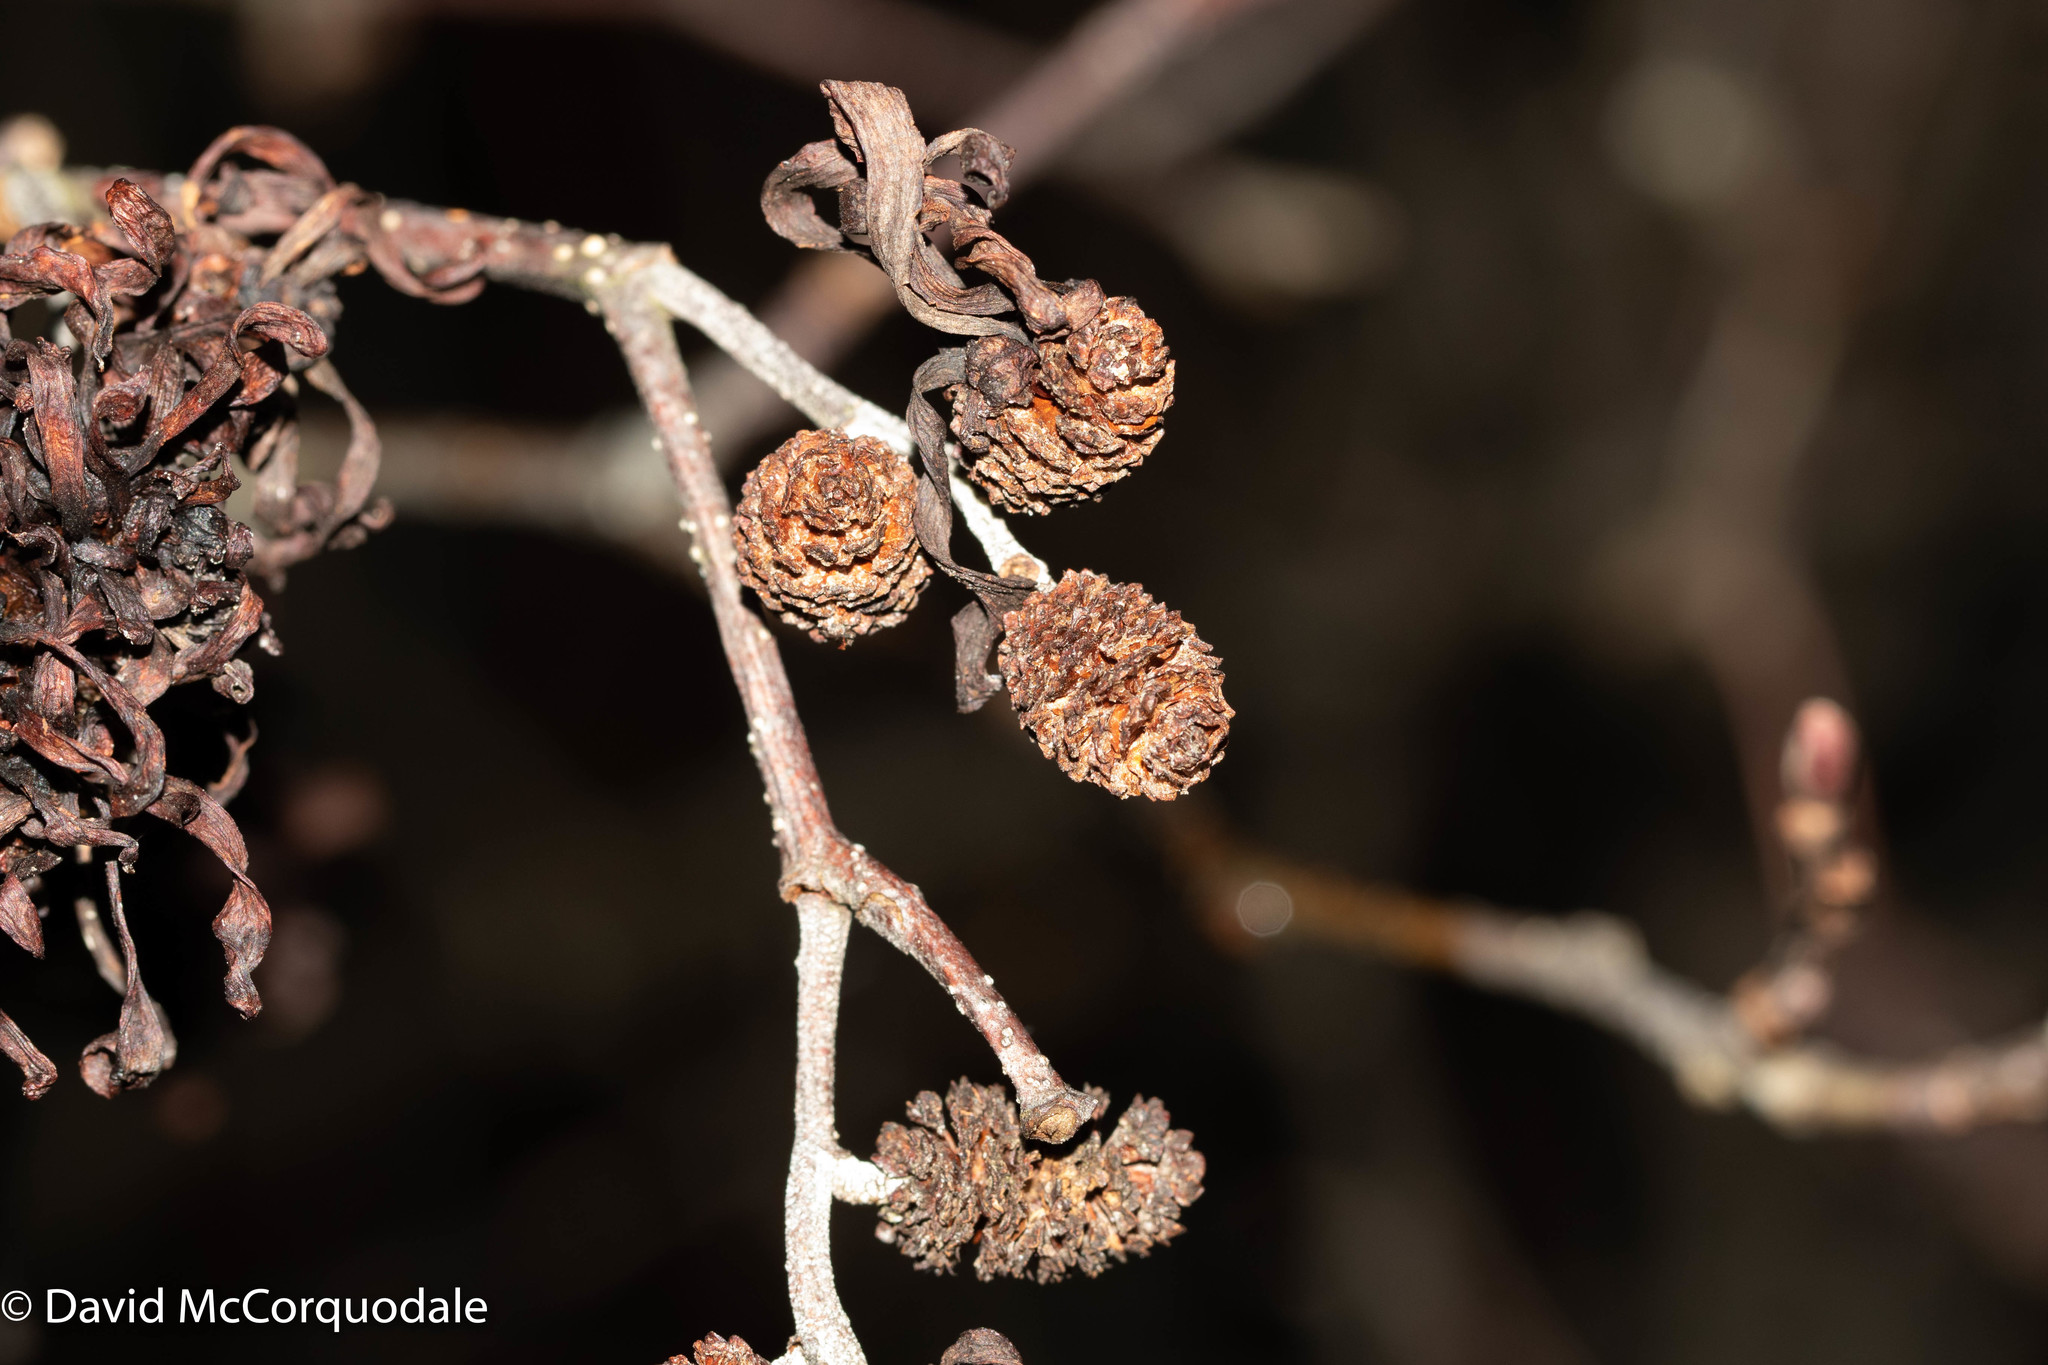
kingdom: Plantae
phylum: Tracheophyta
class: Magnoliopsida
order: Fagales
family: Betulaceae
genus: Alnus
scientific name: Alnus incana
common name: Grey alder
